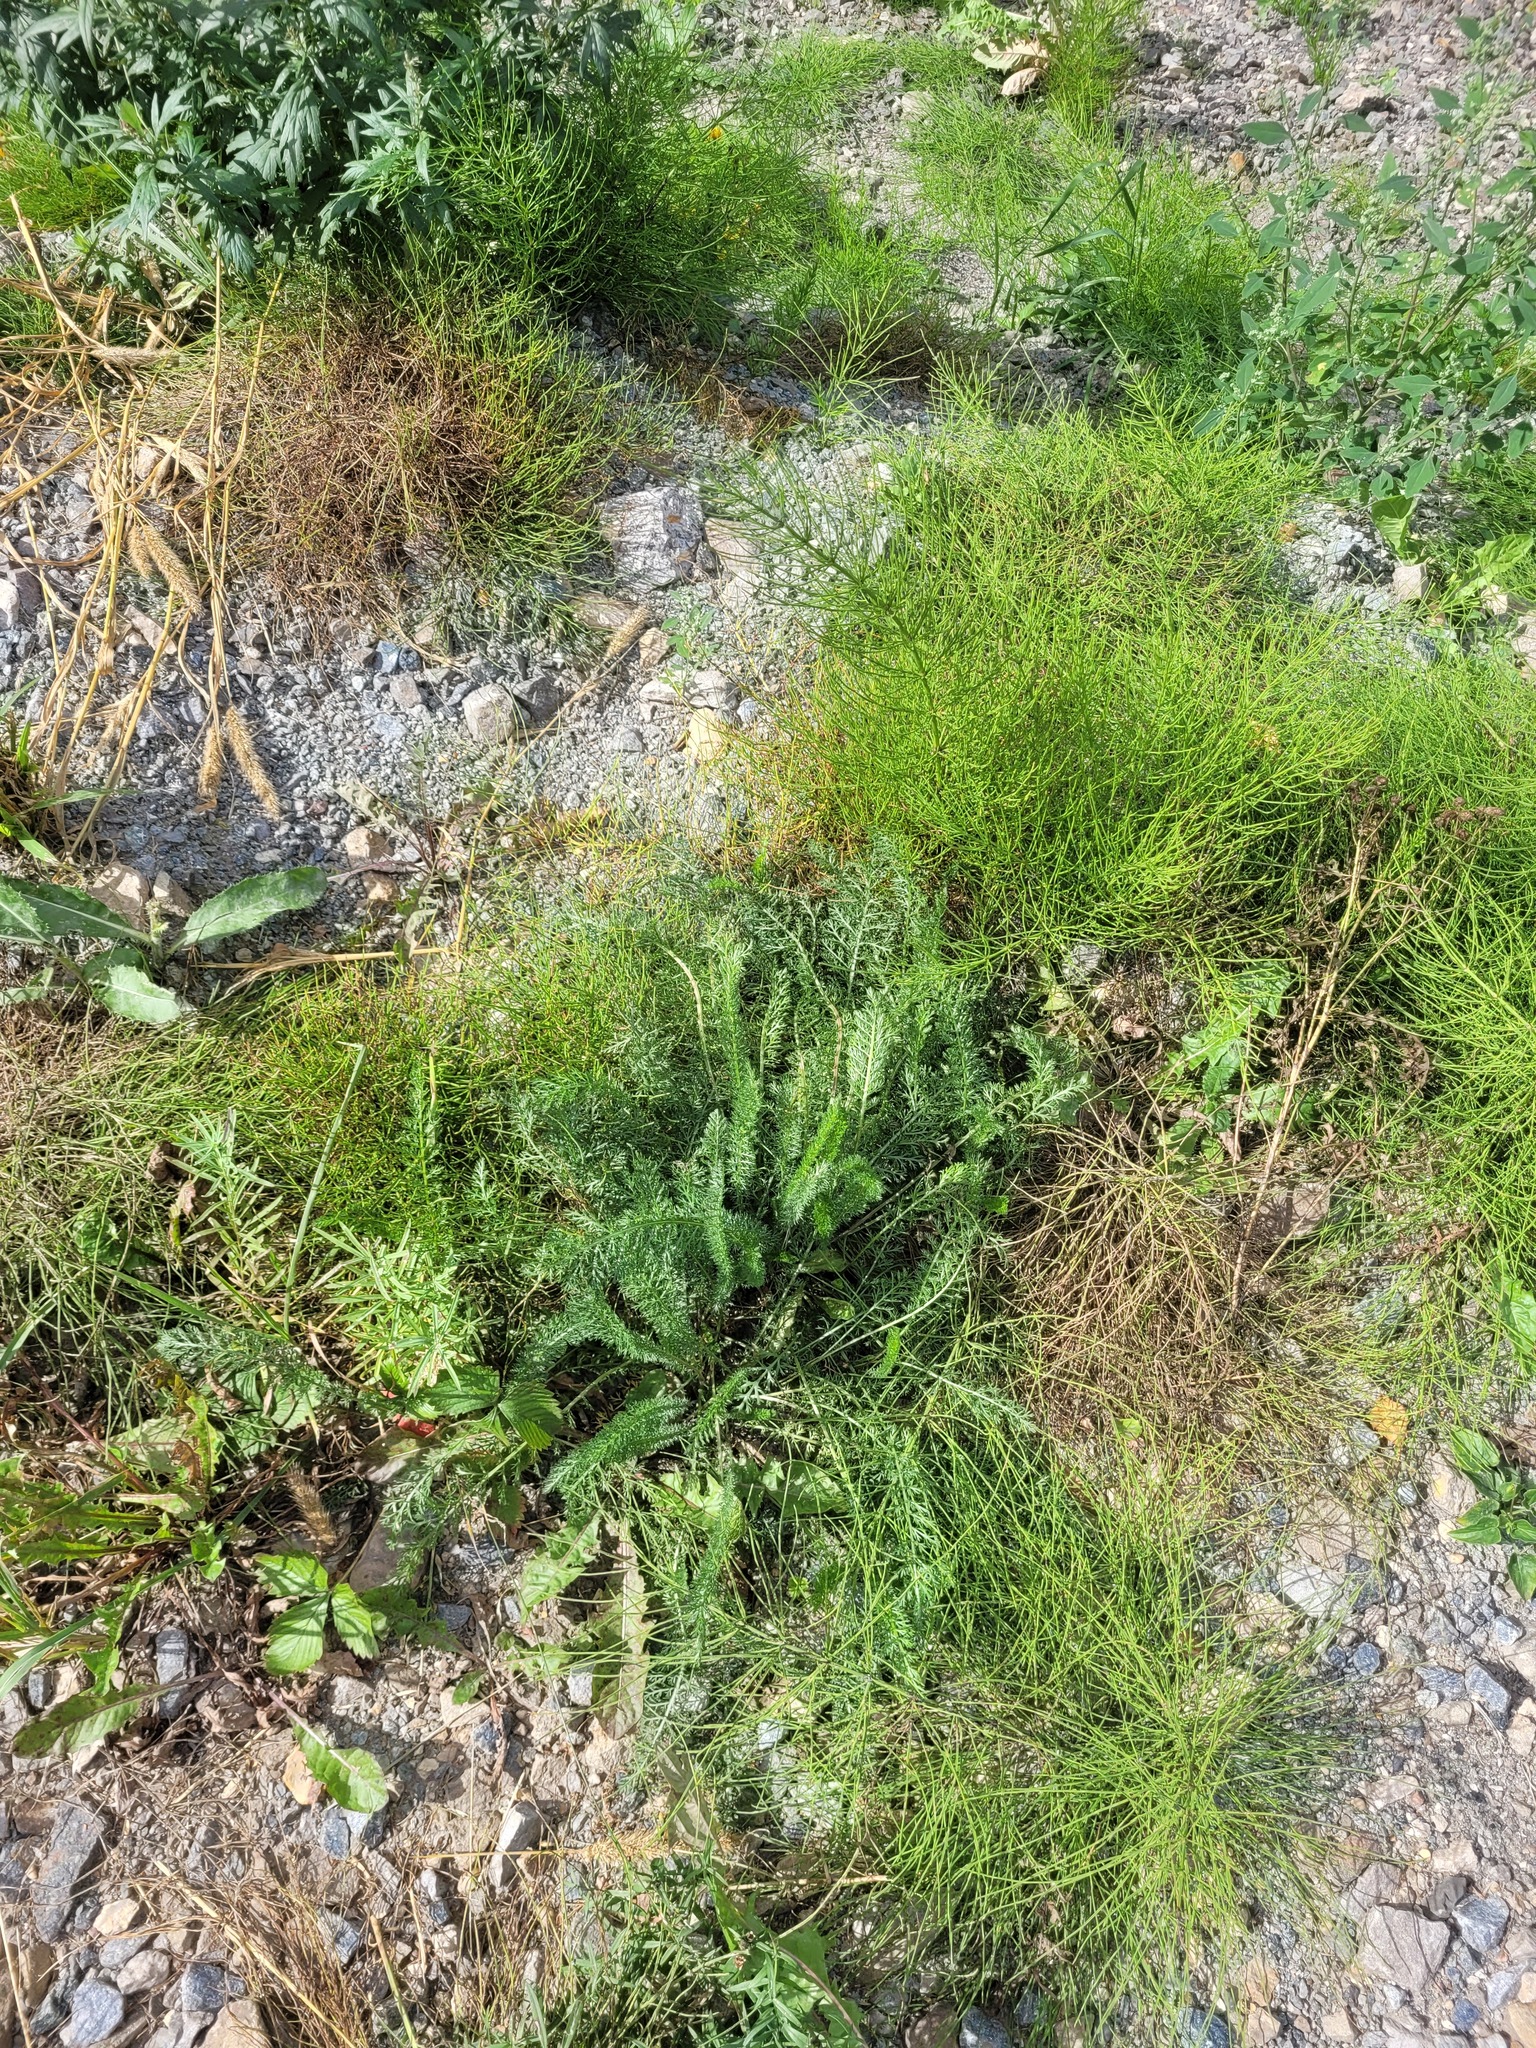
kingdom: Plantae
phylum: Tracheophyta
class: Magnoliopsida
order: Asterales
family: Asteraceae
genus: Achillea
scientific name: Achillea millefolium
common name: Yarrow
